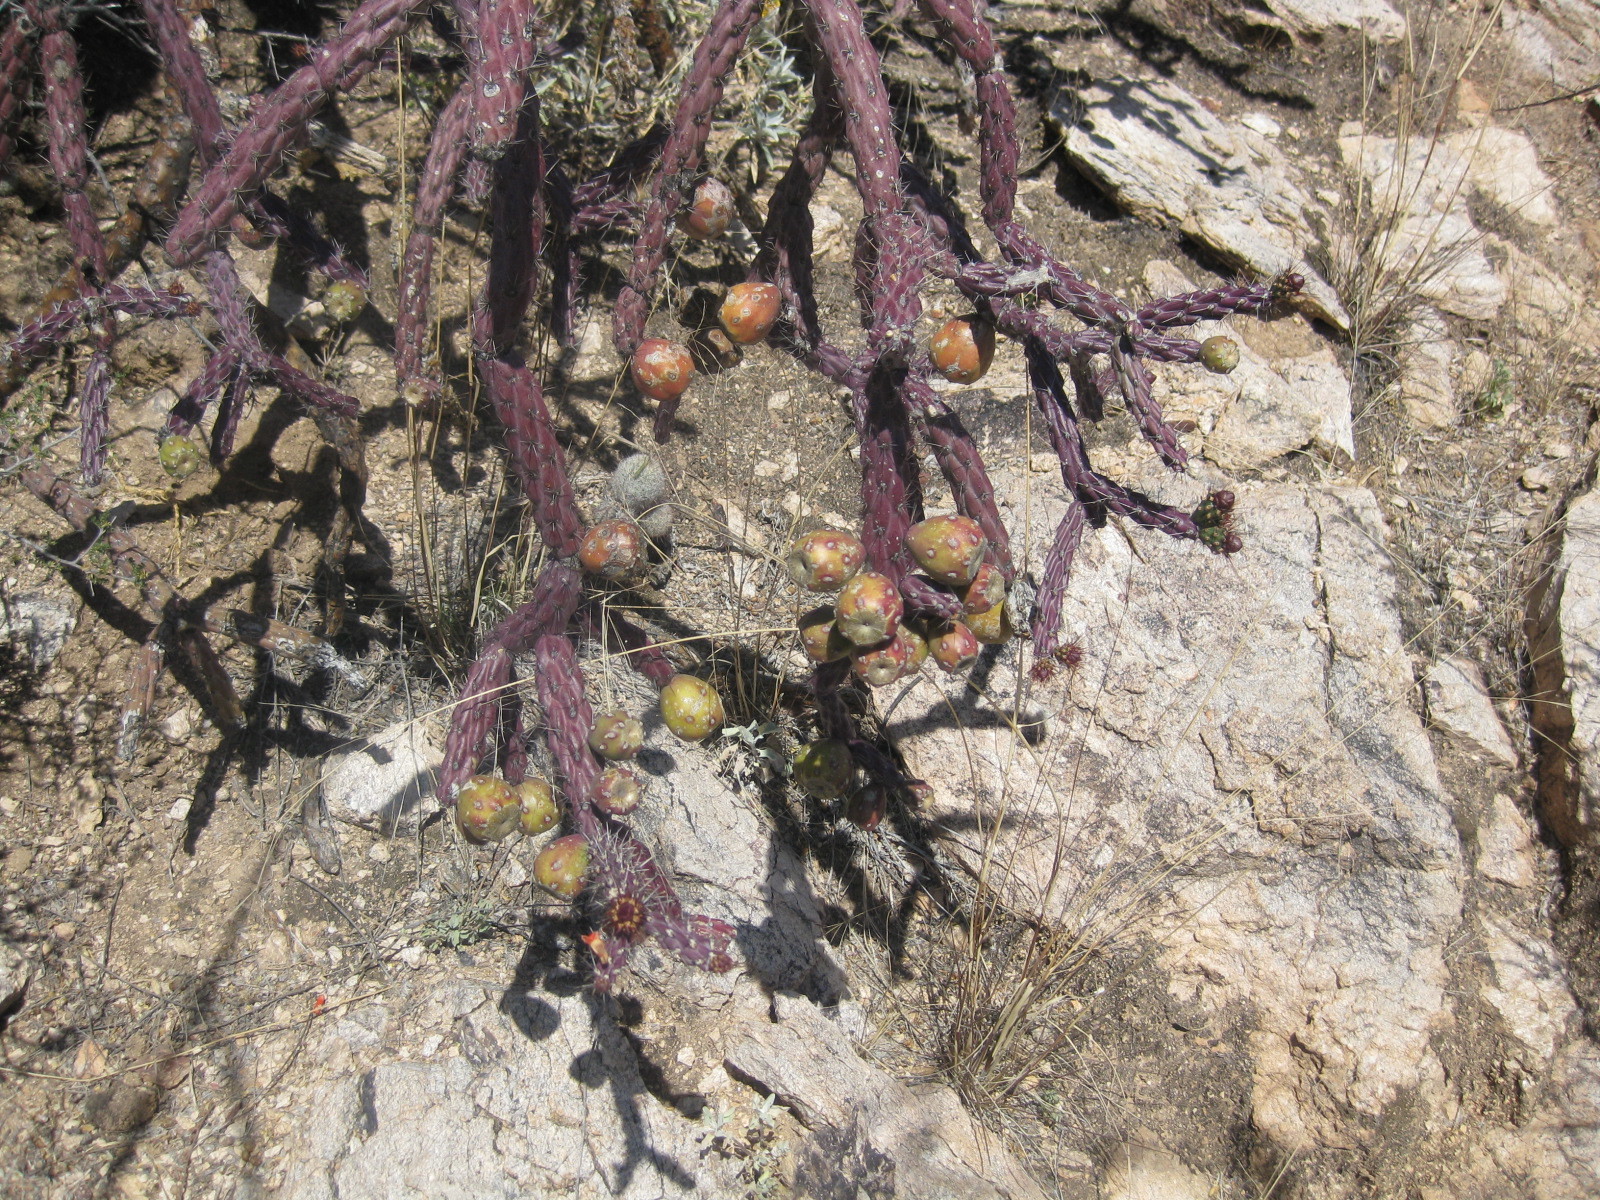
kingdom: Plantae
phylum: Tracheophyta
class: Magnoliopsida
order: Caryophyllales
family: Cactaceae
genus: Cylindropuntia
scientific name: Cylindropuntia thurberi
